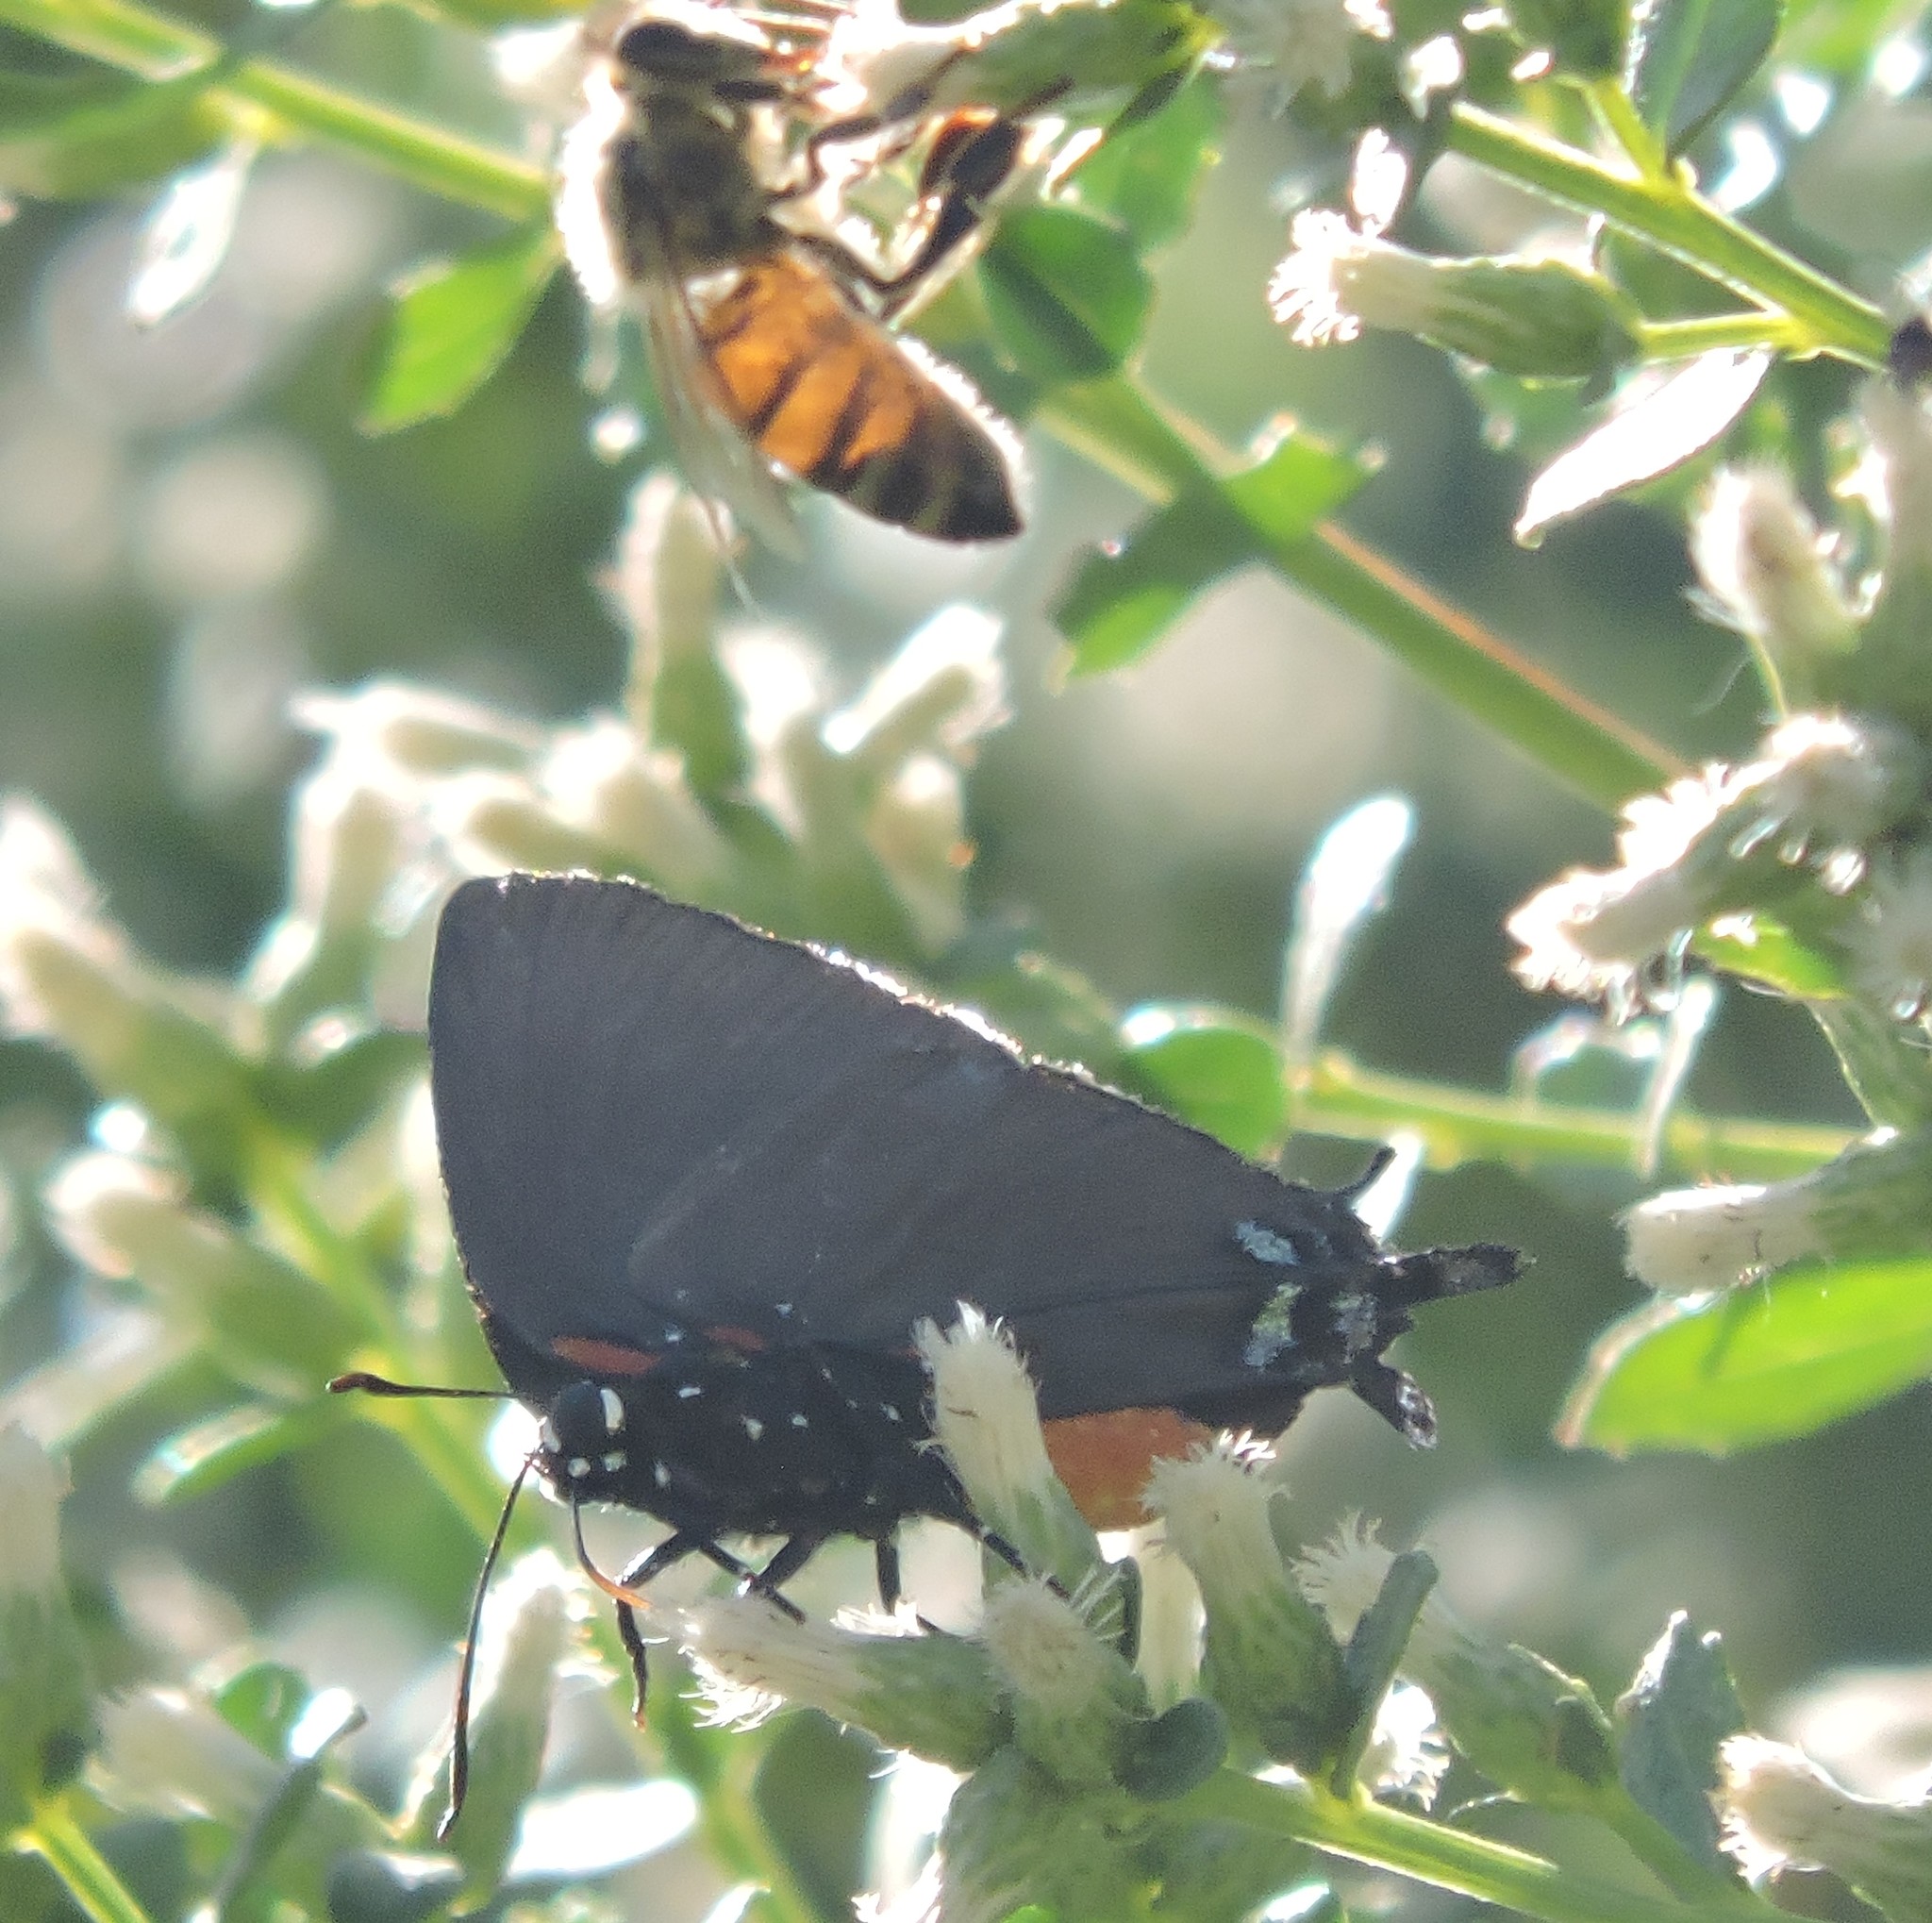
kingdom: Animalia
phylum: Arthropoda
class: Insecta
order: Lepidoptera
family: Lycaenidae
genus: Atlides
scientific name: Atlides halesus
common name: Great purple hairstreak
